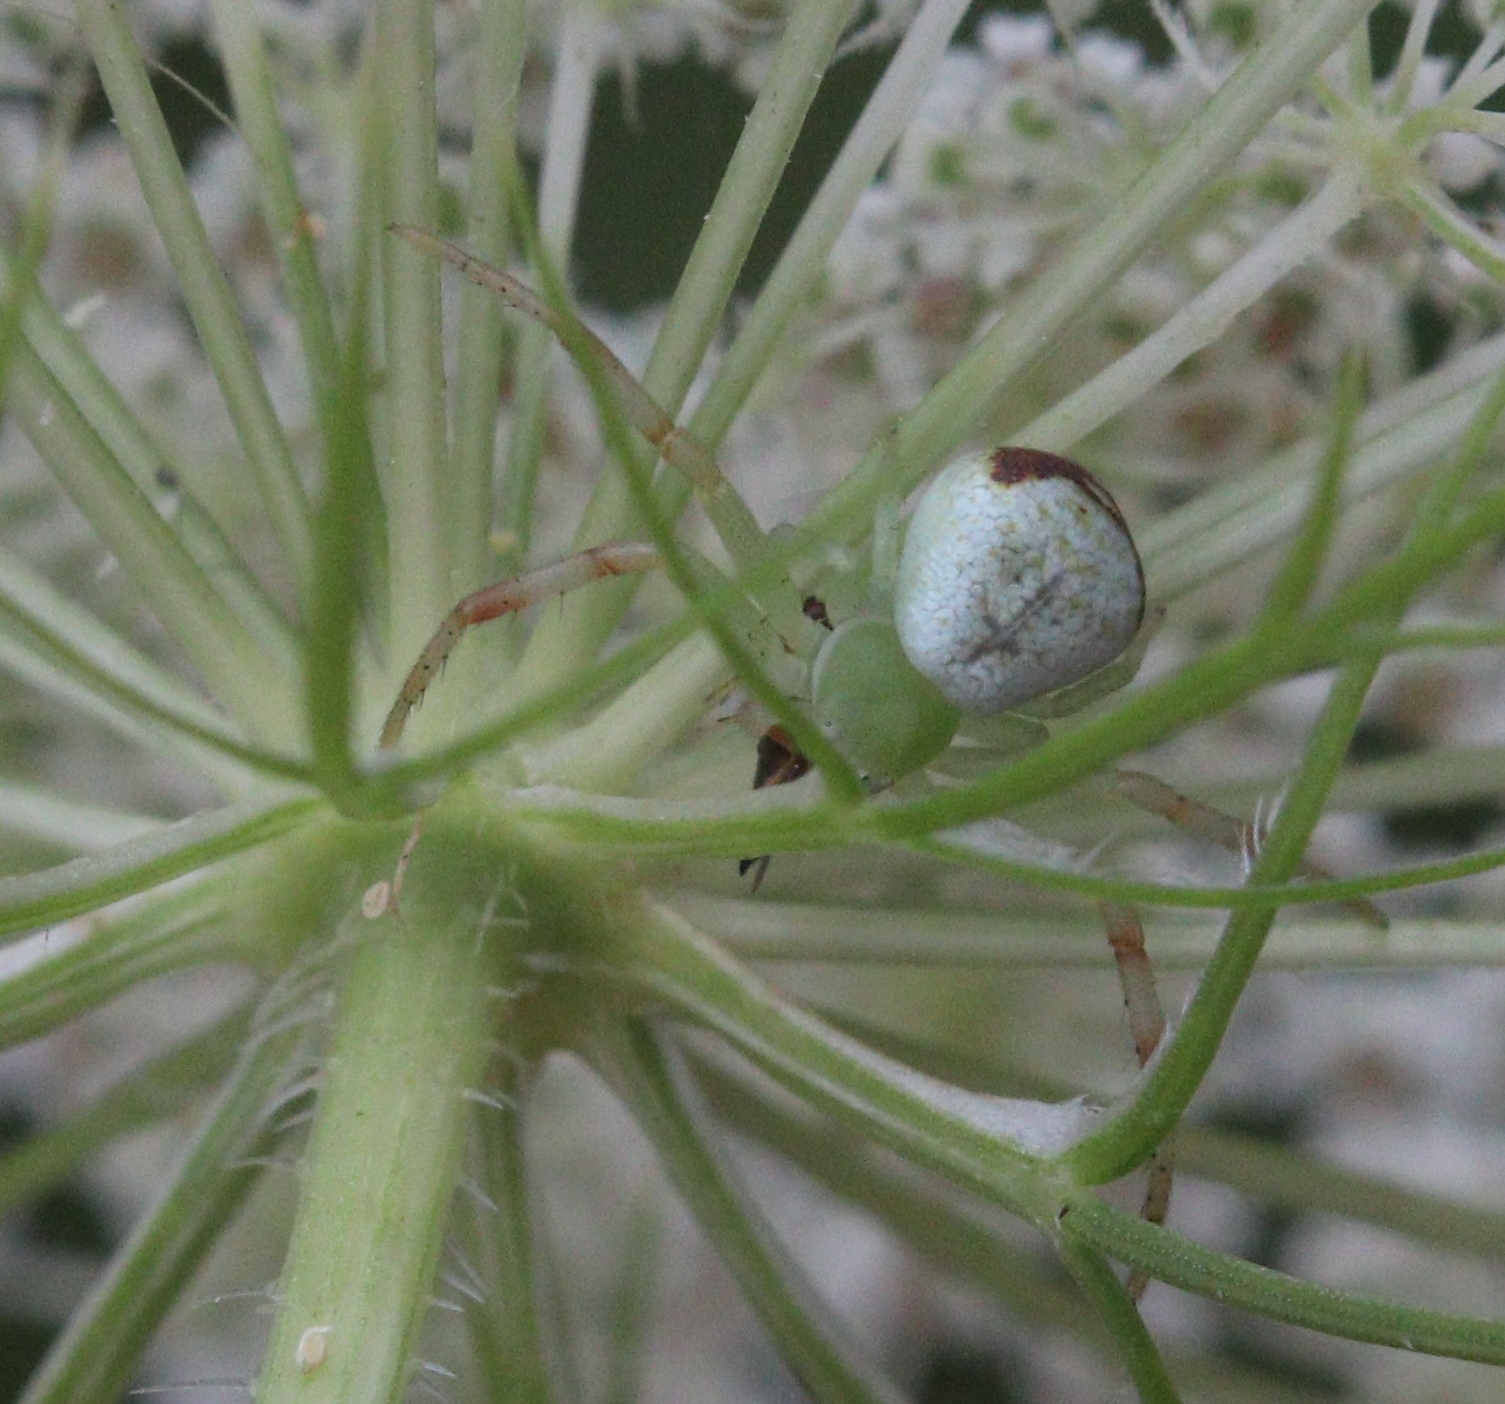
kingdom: Animalia
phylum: Arthropoda
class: Arachnida
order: Araneae
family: Thomisidae
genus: Ebrechtella
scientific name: Ebrechtella tricuspidata
